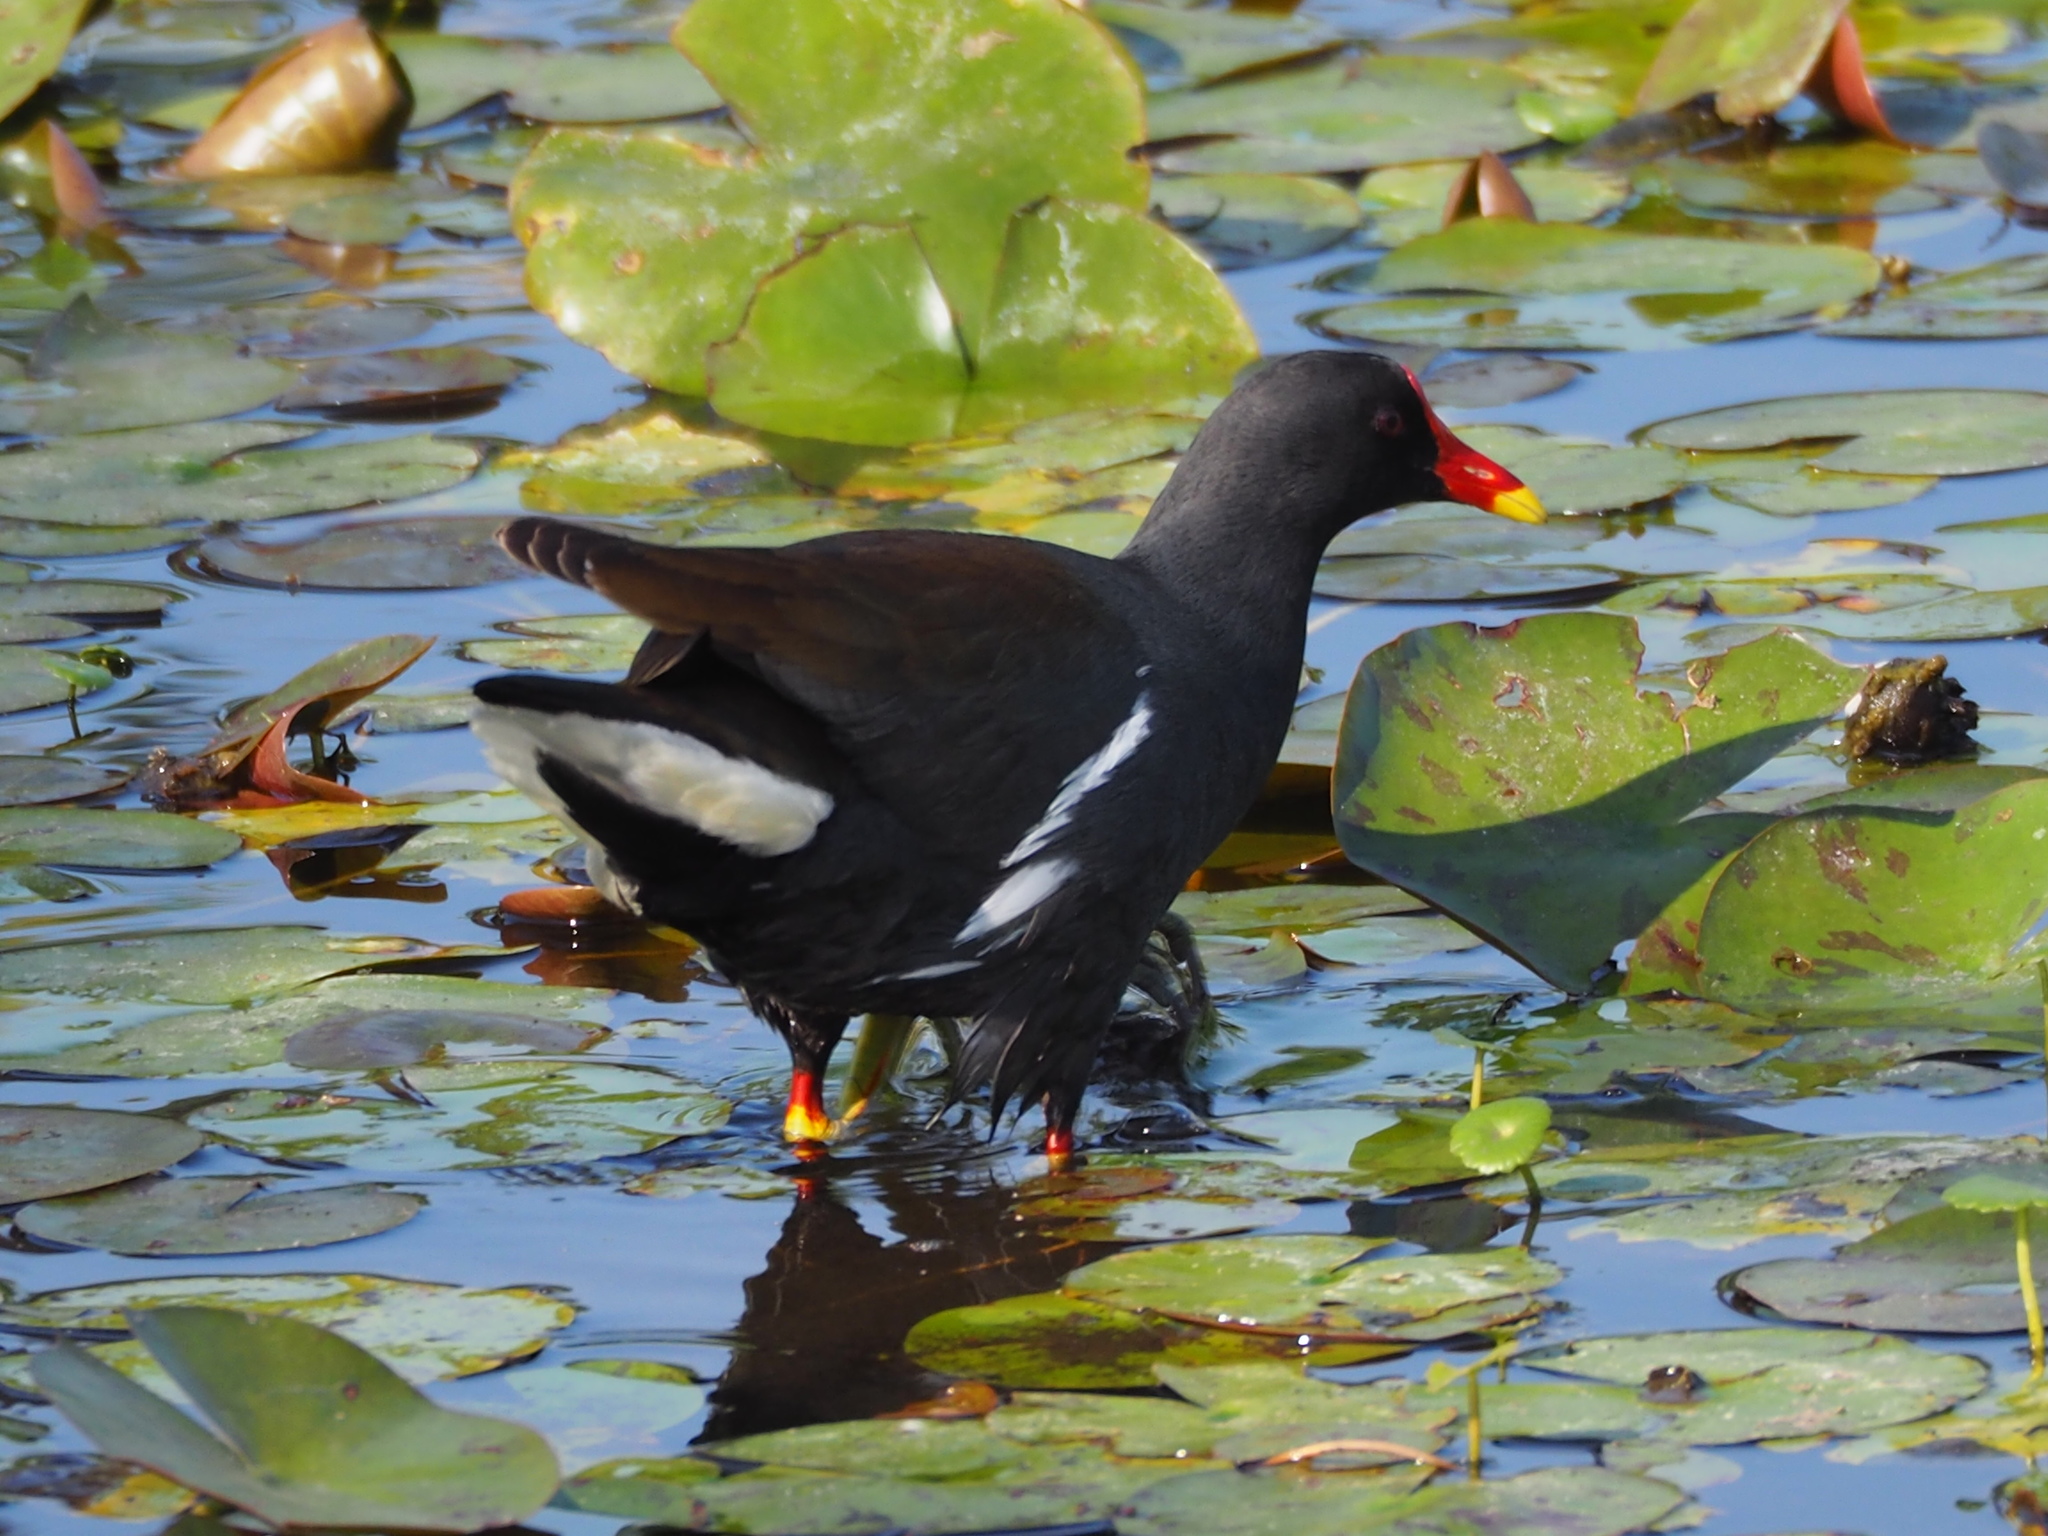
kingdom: Animalia
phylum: Chordata
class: Aves
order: Gruiformes
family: Rallidae
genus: Gallinula
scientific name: Gallinula chloropus
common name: Common moorhen
